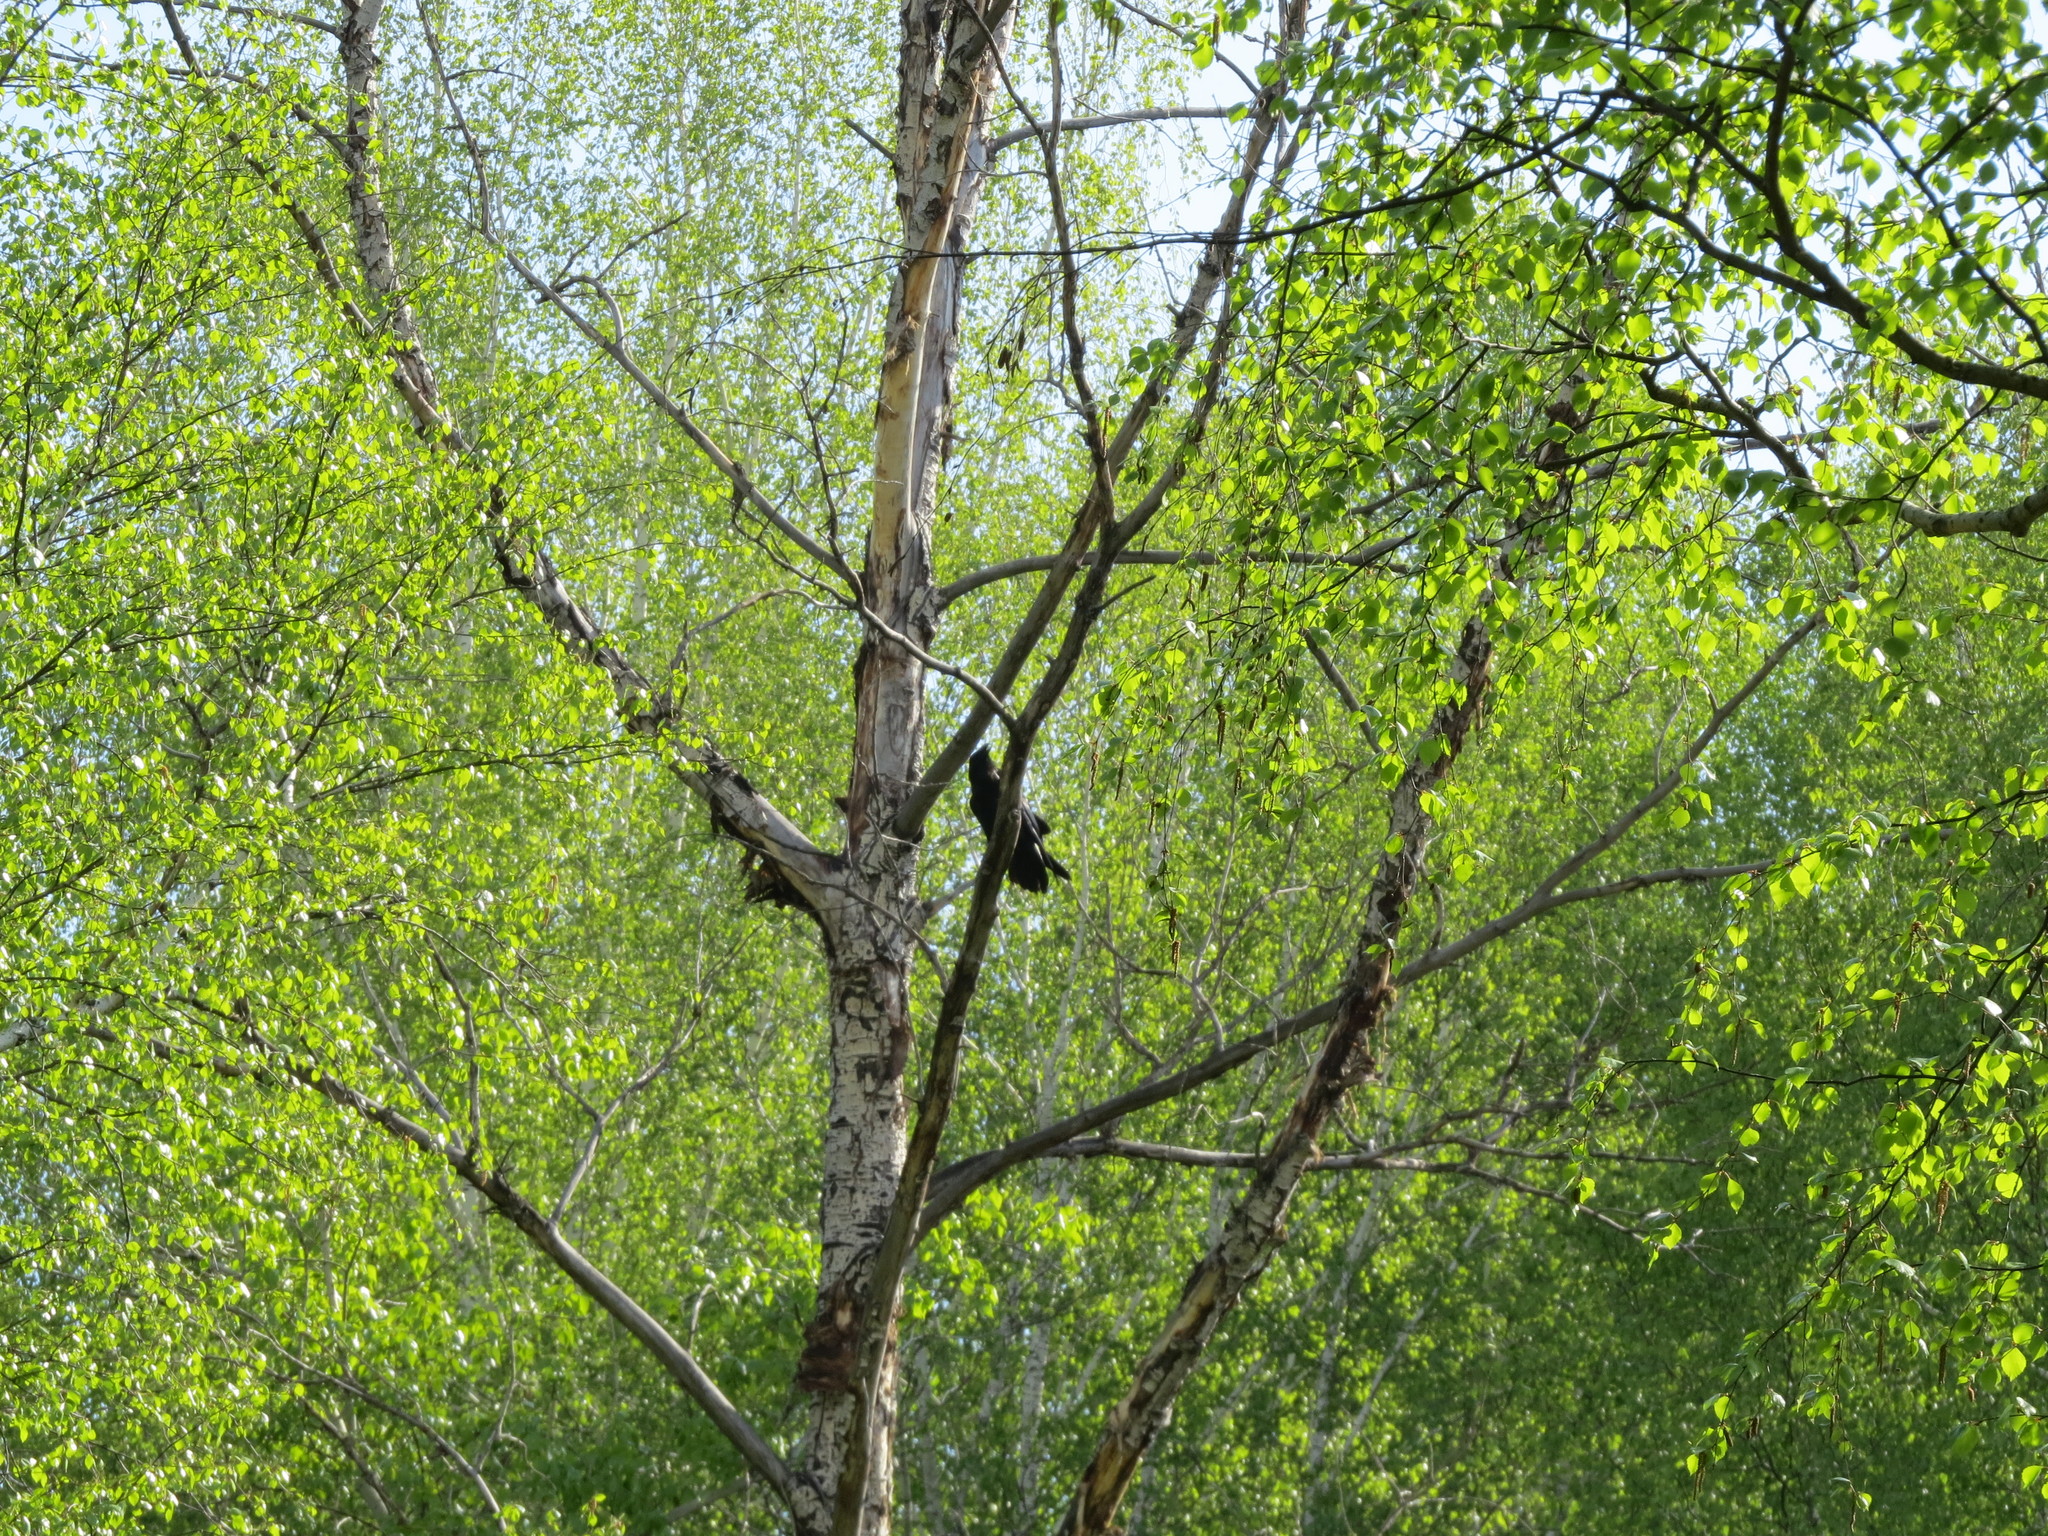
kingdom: Animalia
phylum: Chordata
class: Aves
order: Passeriformes
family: Corvidae
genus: Corvus
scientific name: Corvus corax
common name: Common raven
